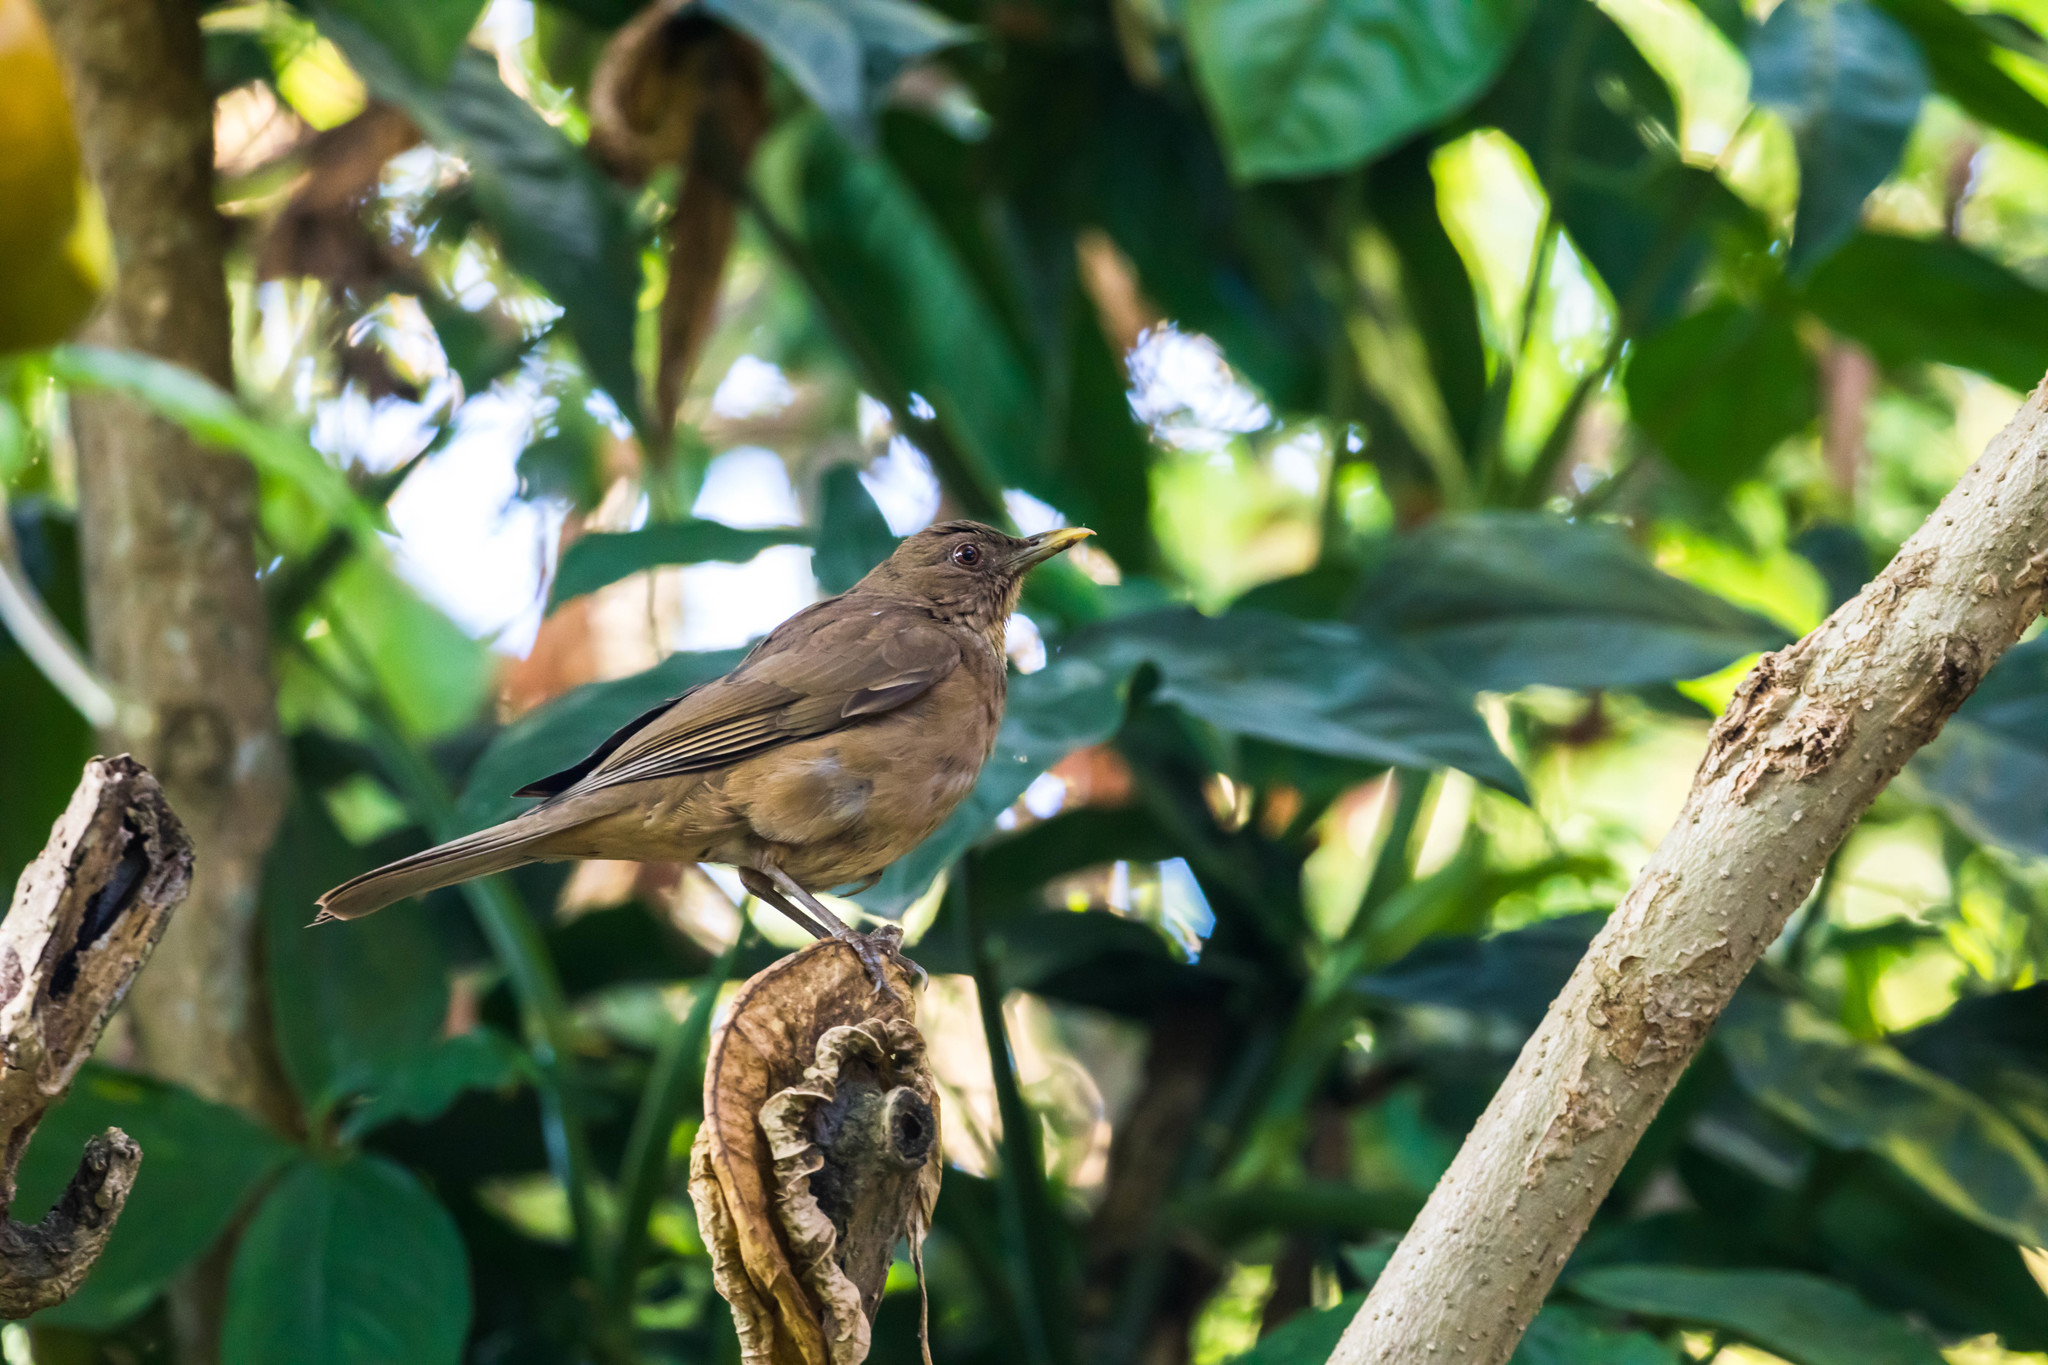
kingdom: Animalia
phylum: Chordata
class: Aves
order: Passeriformes
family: Turdidae
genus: Turdus
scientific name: Turdus grayi
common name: Clay-colored thrush
